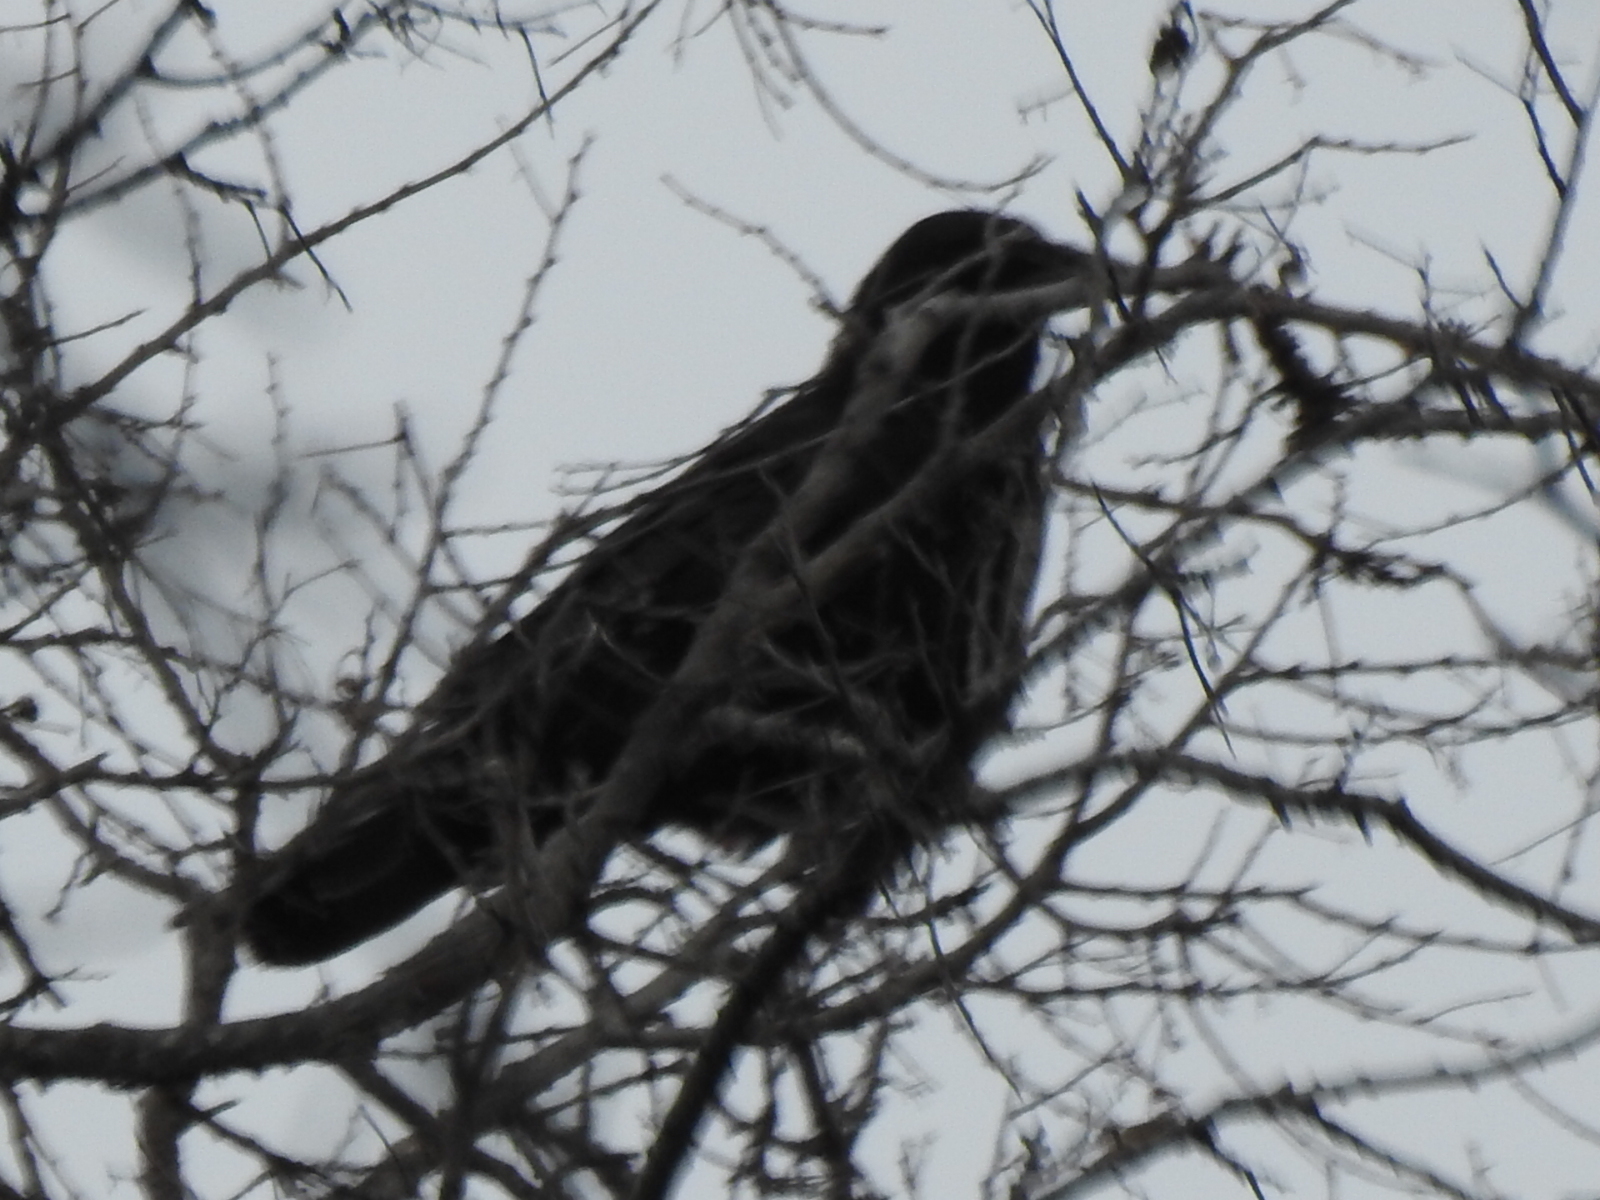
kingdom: Animalia
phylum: Chordata
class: Aves
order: Passeriformes
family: Corvidae
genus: Corvus
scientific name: Corvus brachyrhynchos
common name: American crow
